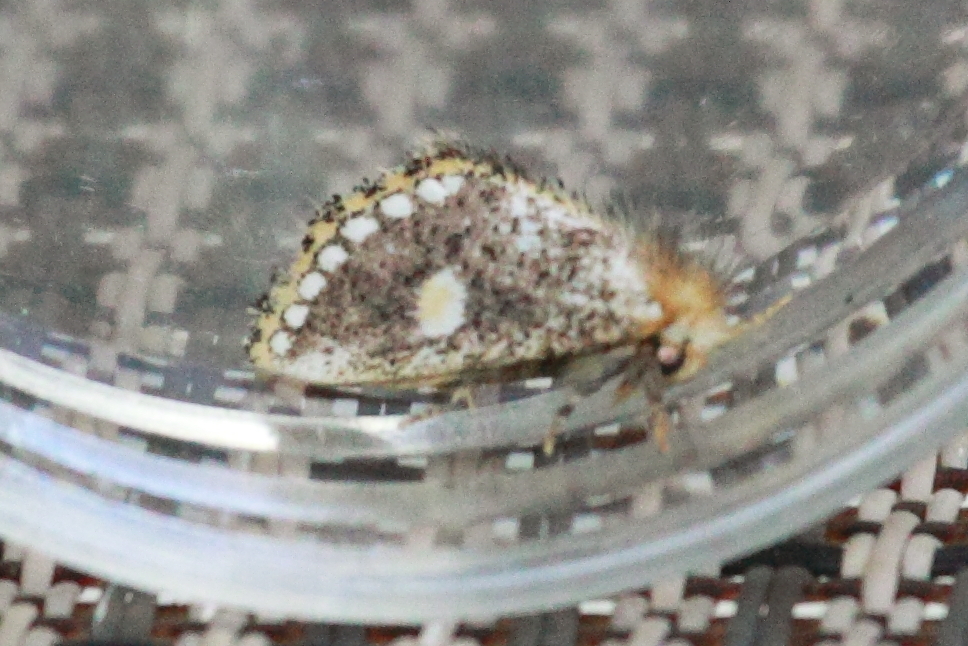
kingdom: Animalia
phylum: Arthropoda
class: Insecta
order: Lepidoptera
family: Notodontidae
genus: Epicoma
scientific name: Epicoma protrahens
